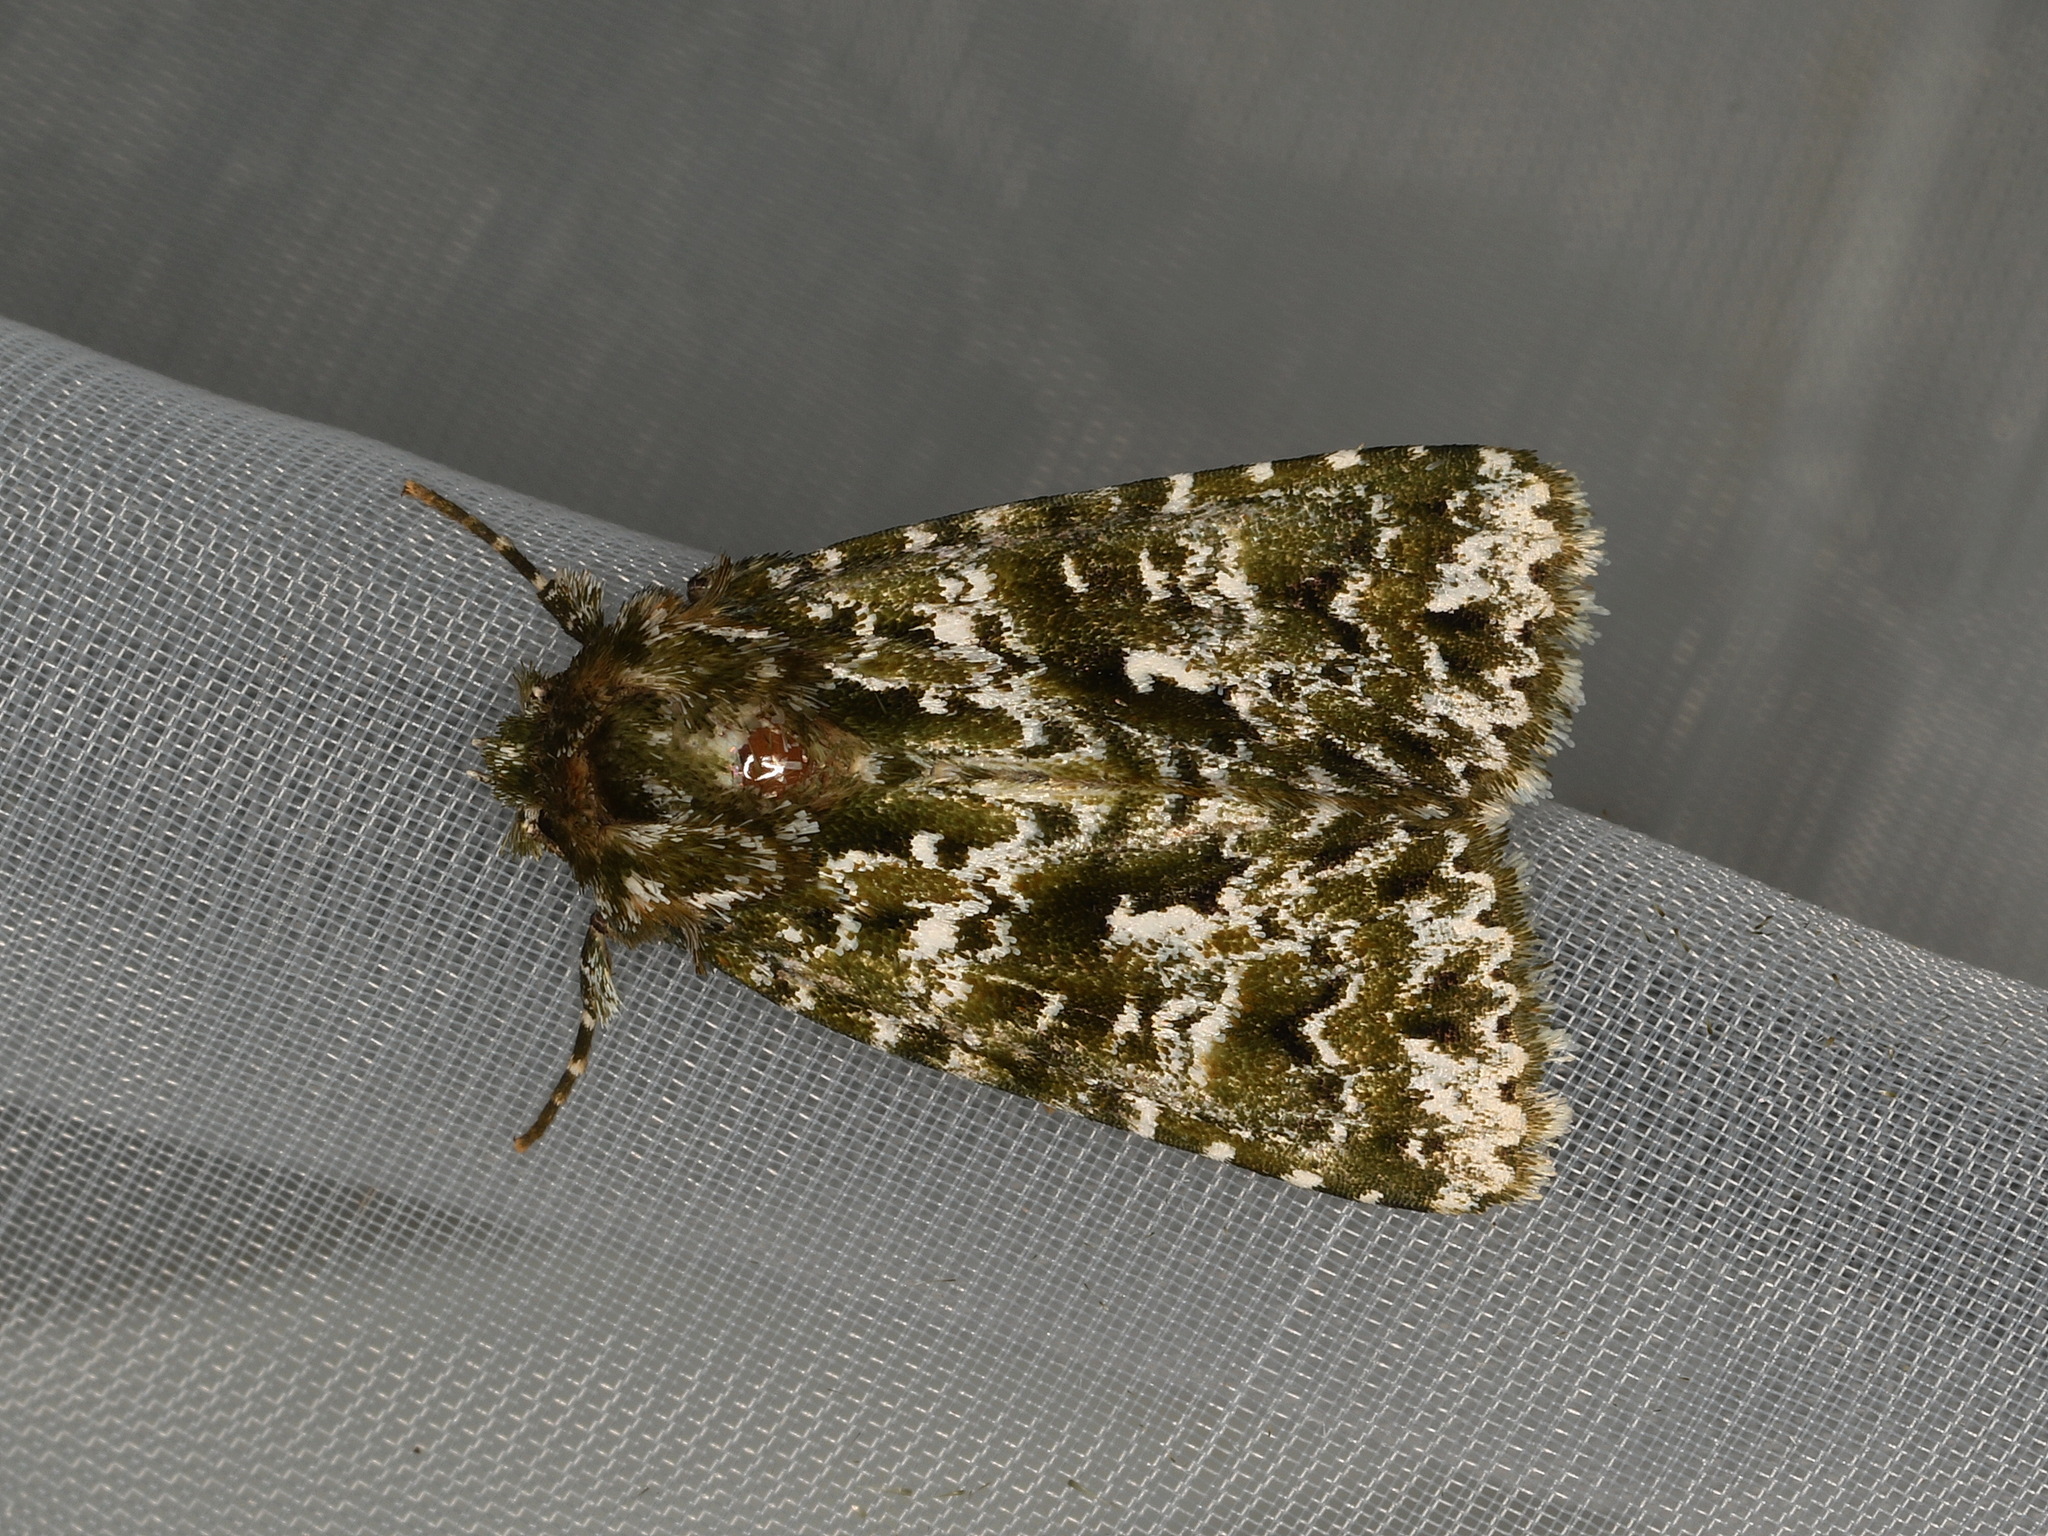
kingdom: Animalia
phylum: Arthropoda
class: Insecta
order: Lepidoptera
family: Noctuidae
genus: Thalatha
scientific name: Thalatha bryochlora
